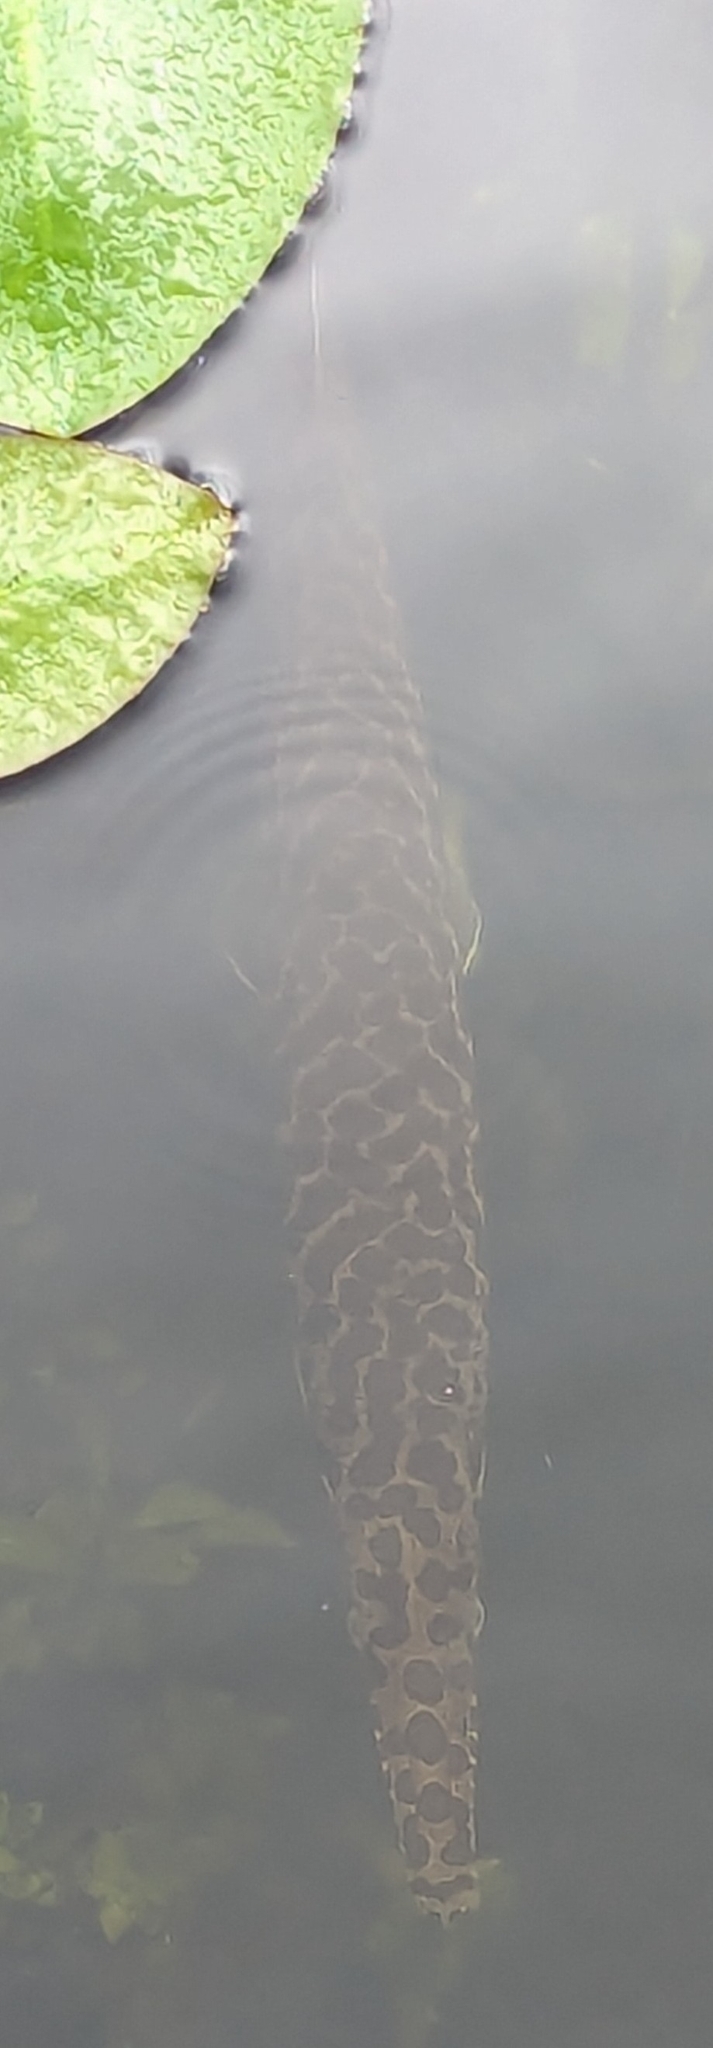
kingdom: Animalia
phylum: Chordata
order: Lepisosteiformes
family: Lepisosteidae
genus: Lepisosteus
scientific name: Lepisosteus platyrhincus
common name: Florida gar
